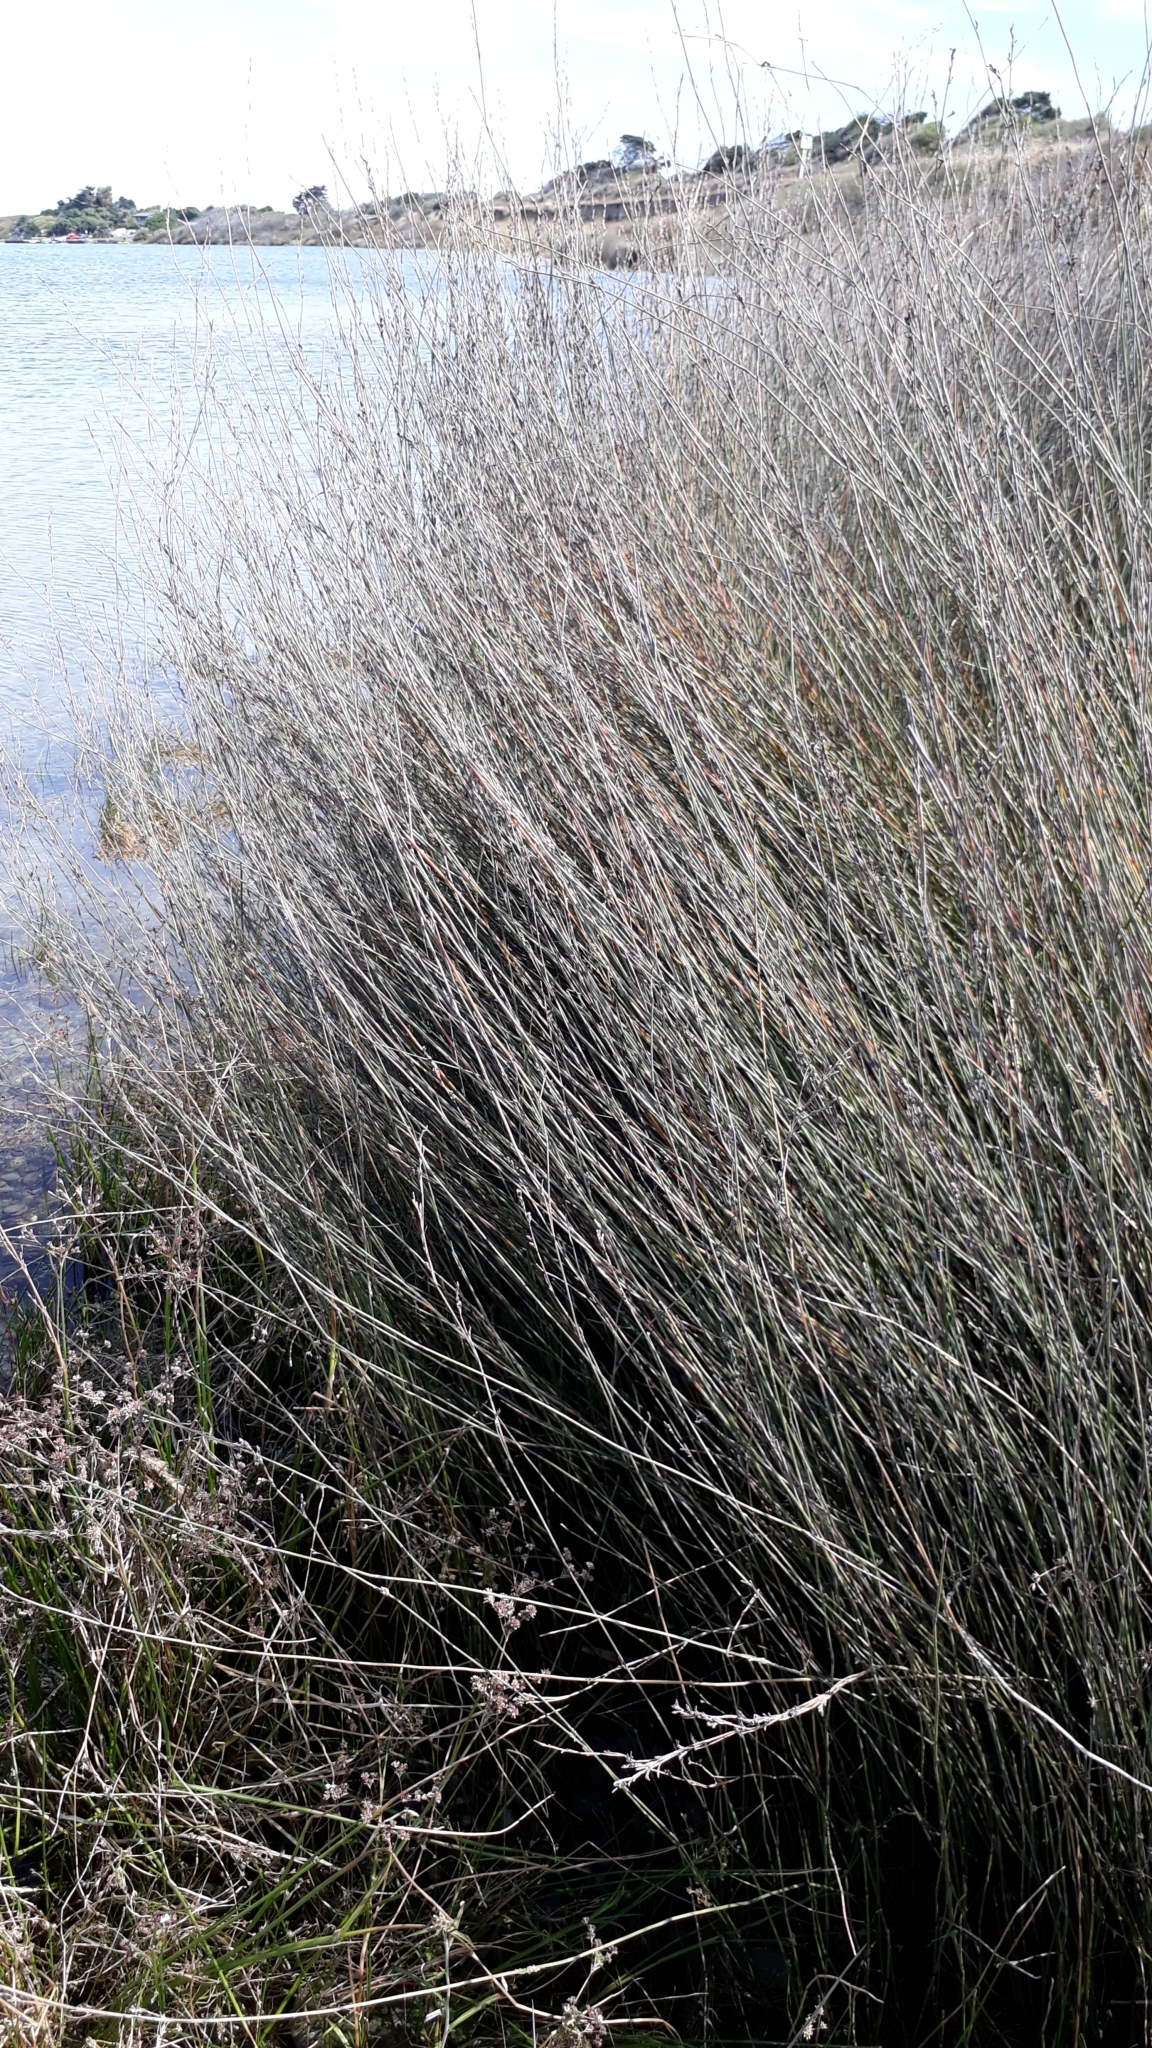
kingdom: Plantae
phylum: Tracheophyta
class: Liliopsida
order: Poales
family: Restionaceae
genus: Apodasmia
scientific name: Apodasmia similis
